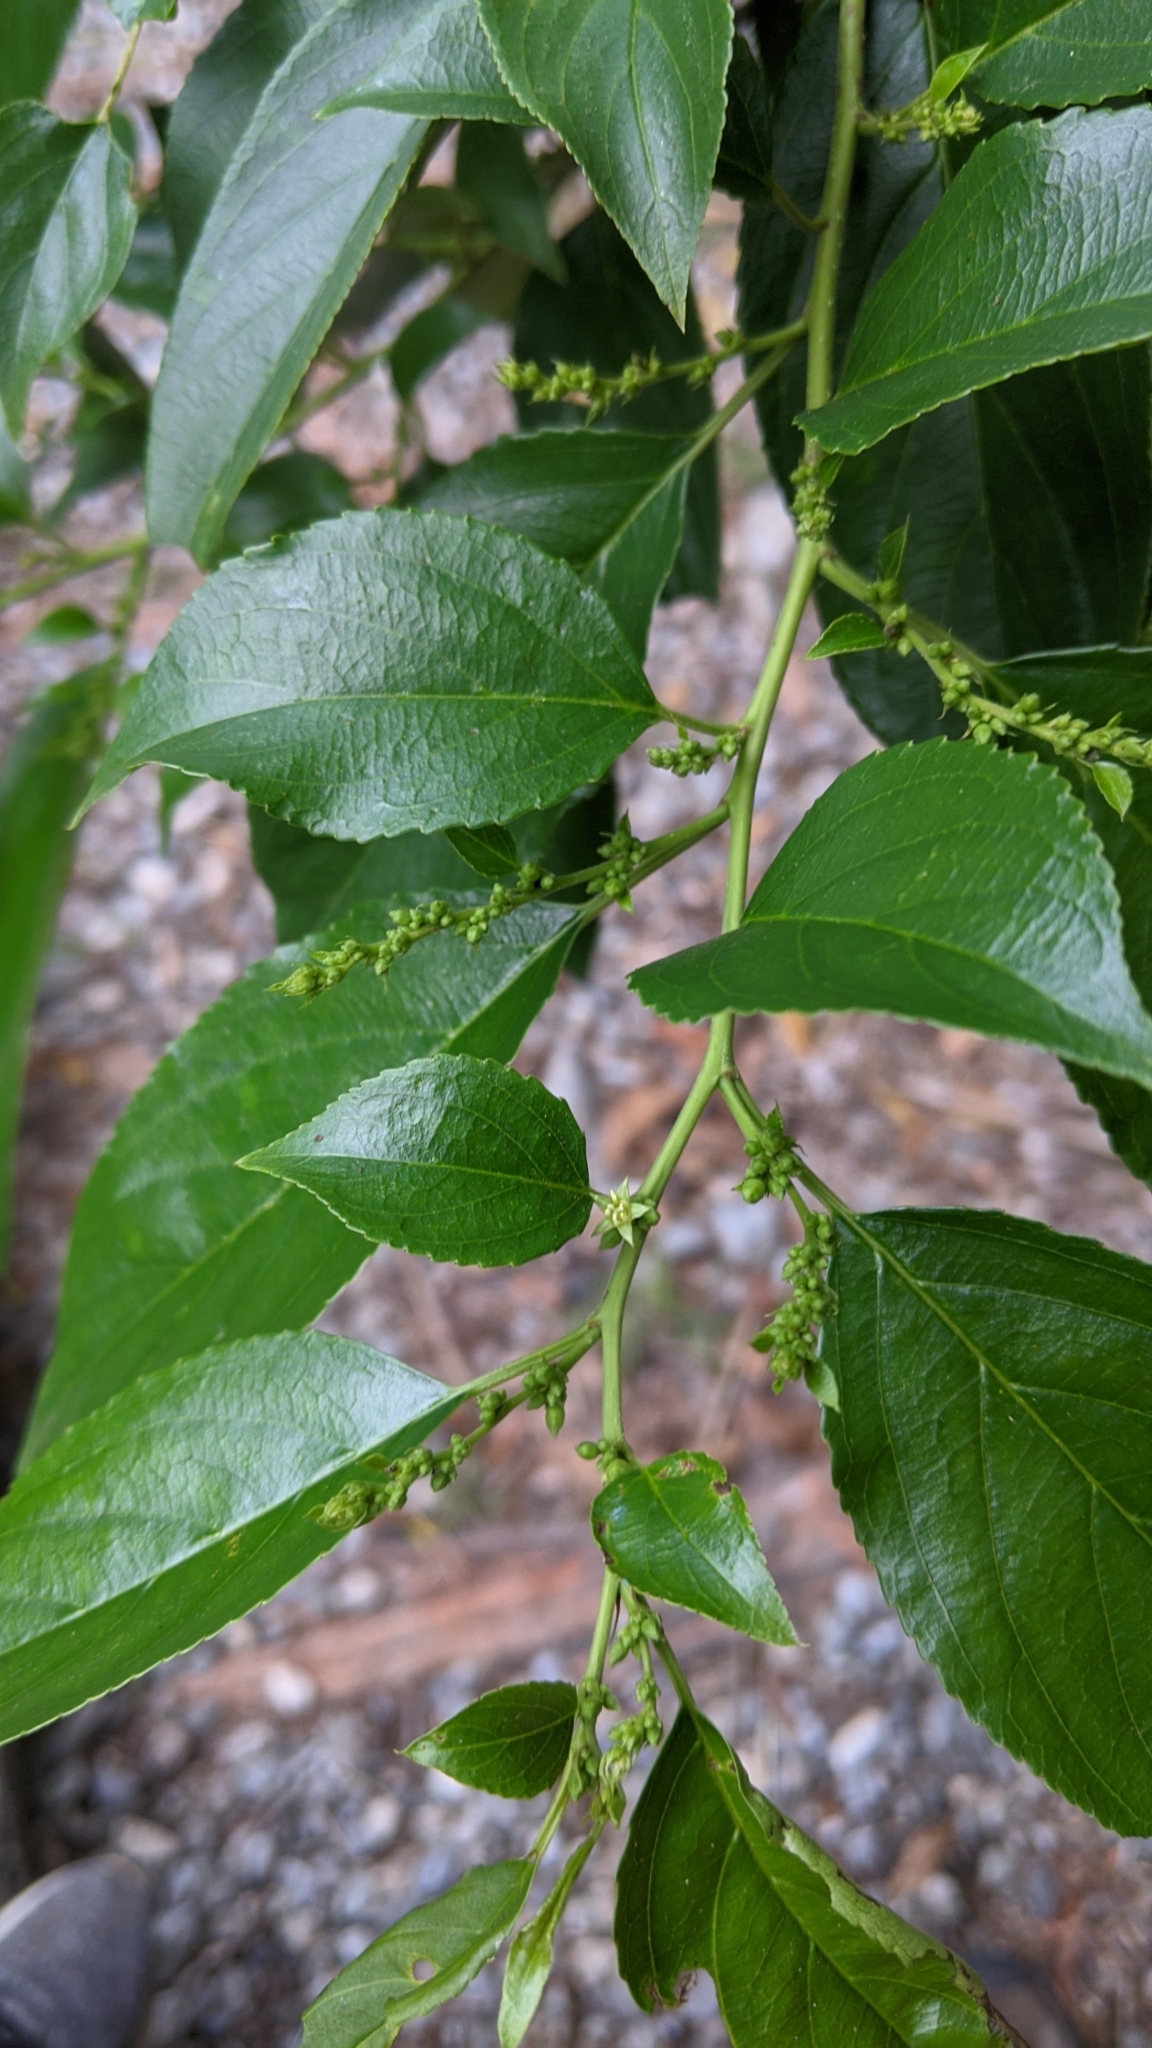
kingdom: Plantae
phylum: Tracheophyta
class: Magnoliopsida
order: Rosales
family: Rhamnaceae
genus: Rhamnus
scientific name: Rhamnus formosana
